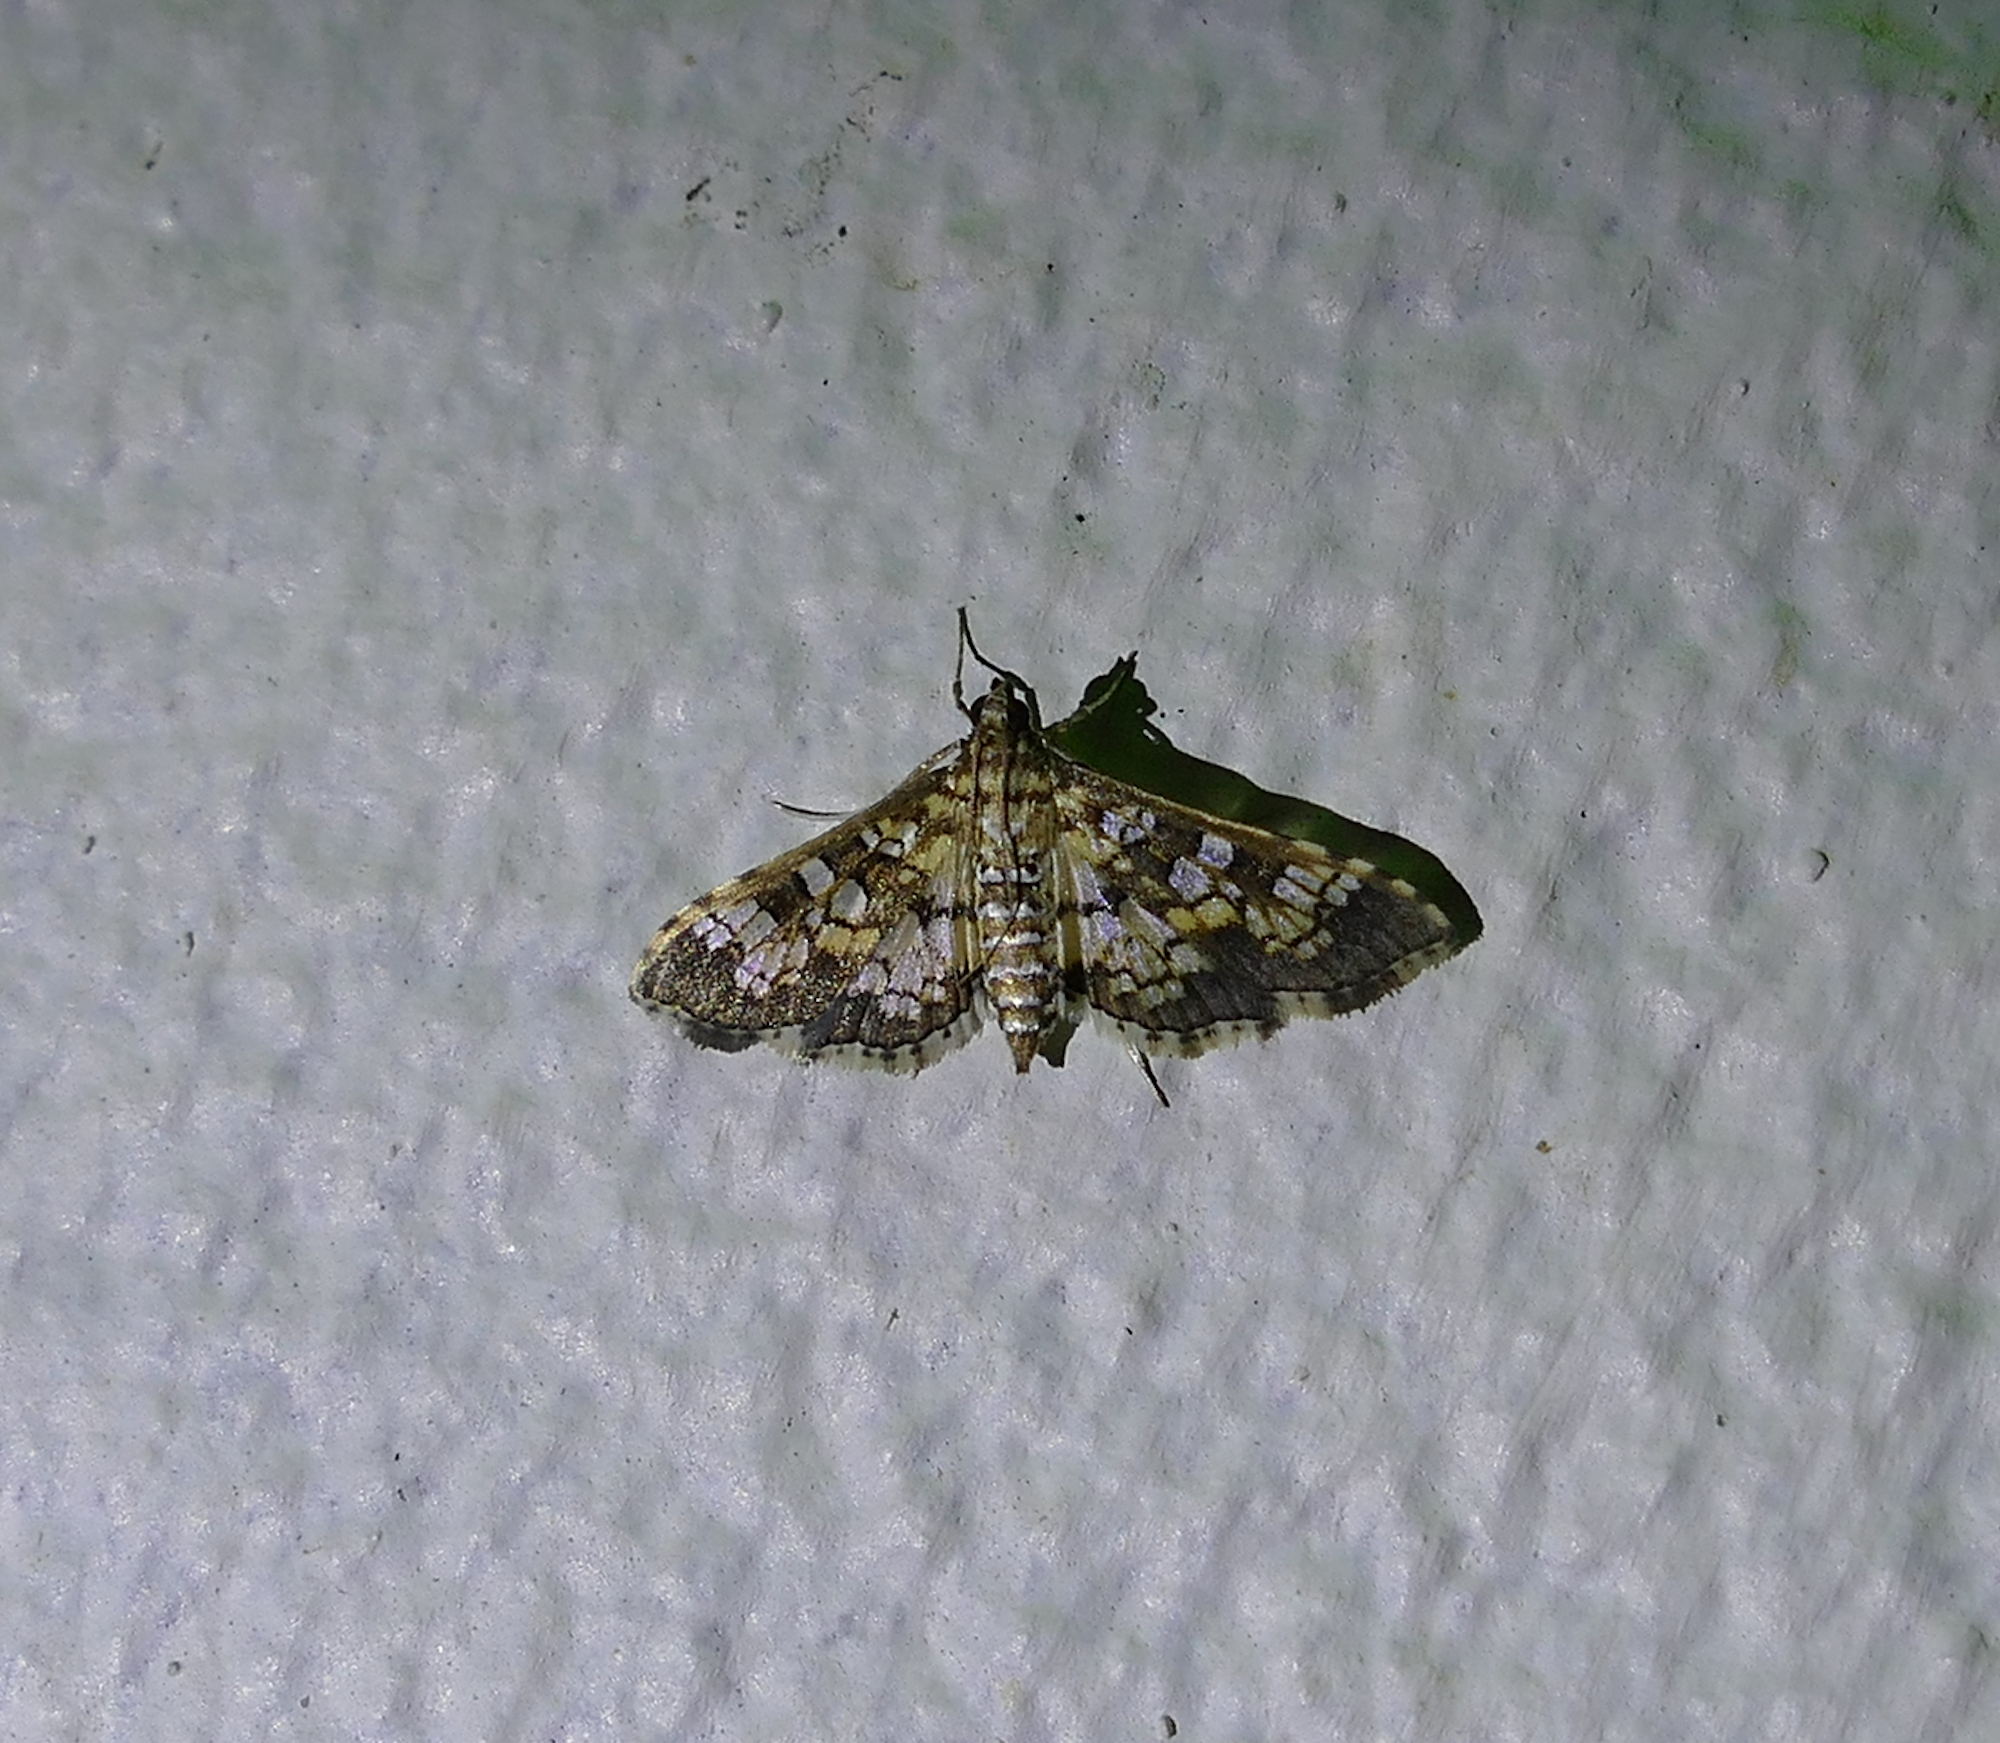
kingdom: Animalia
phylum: Arthropoda
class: Insecta
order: Lepidoptera
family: Crambidae
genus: Samea
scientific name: Samea ecclesialis
